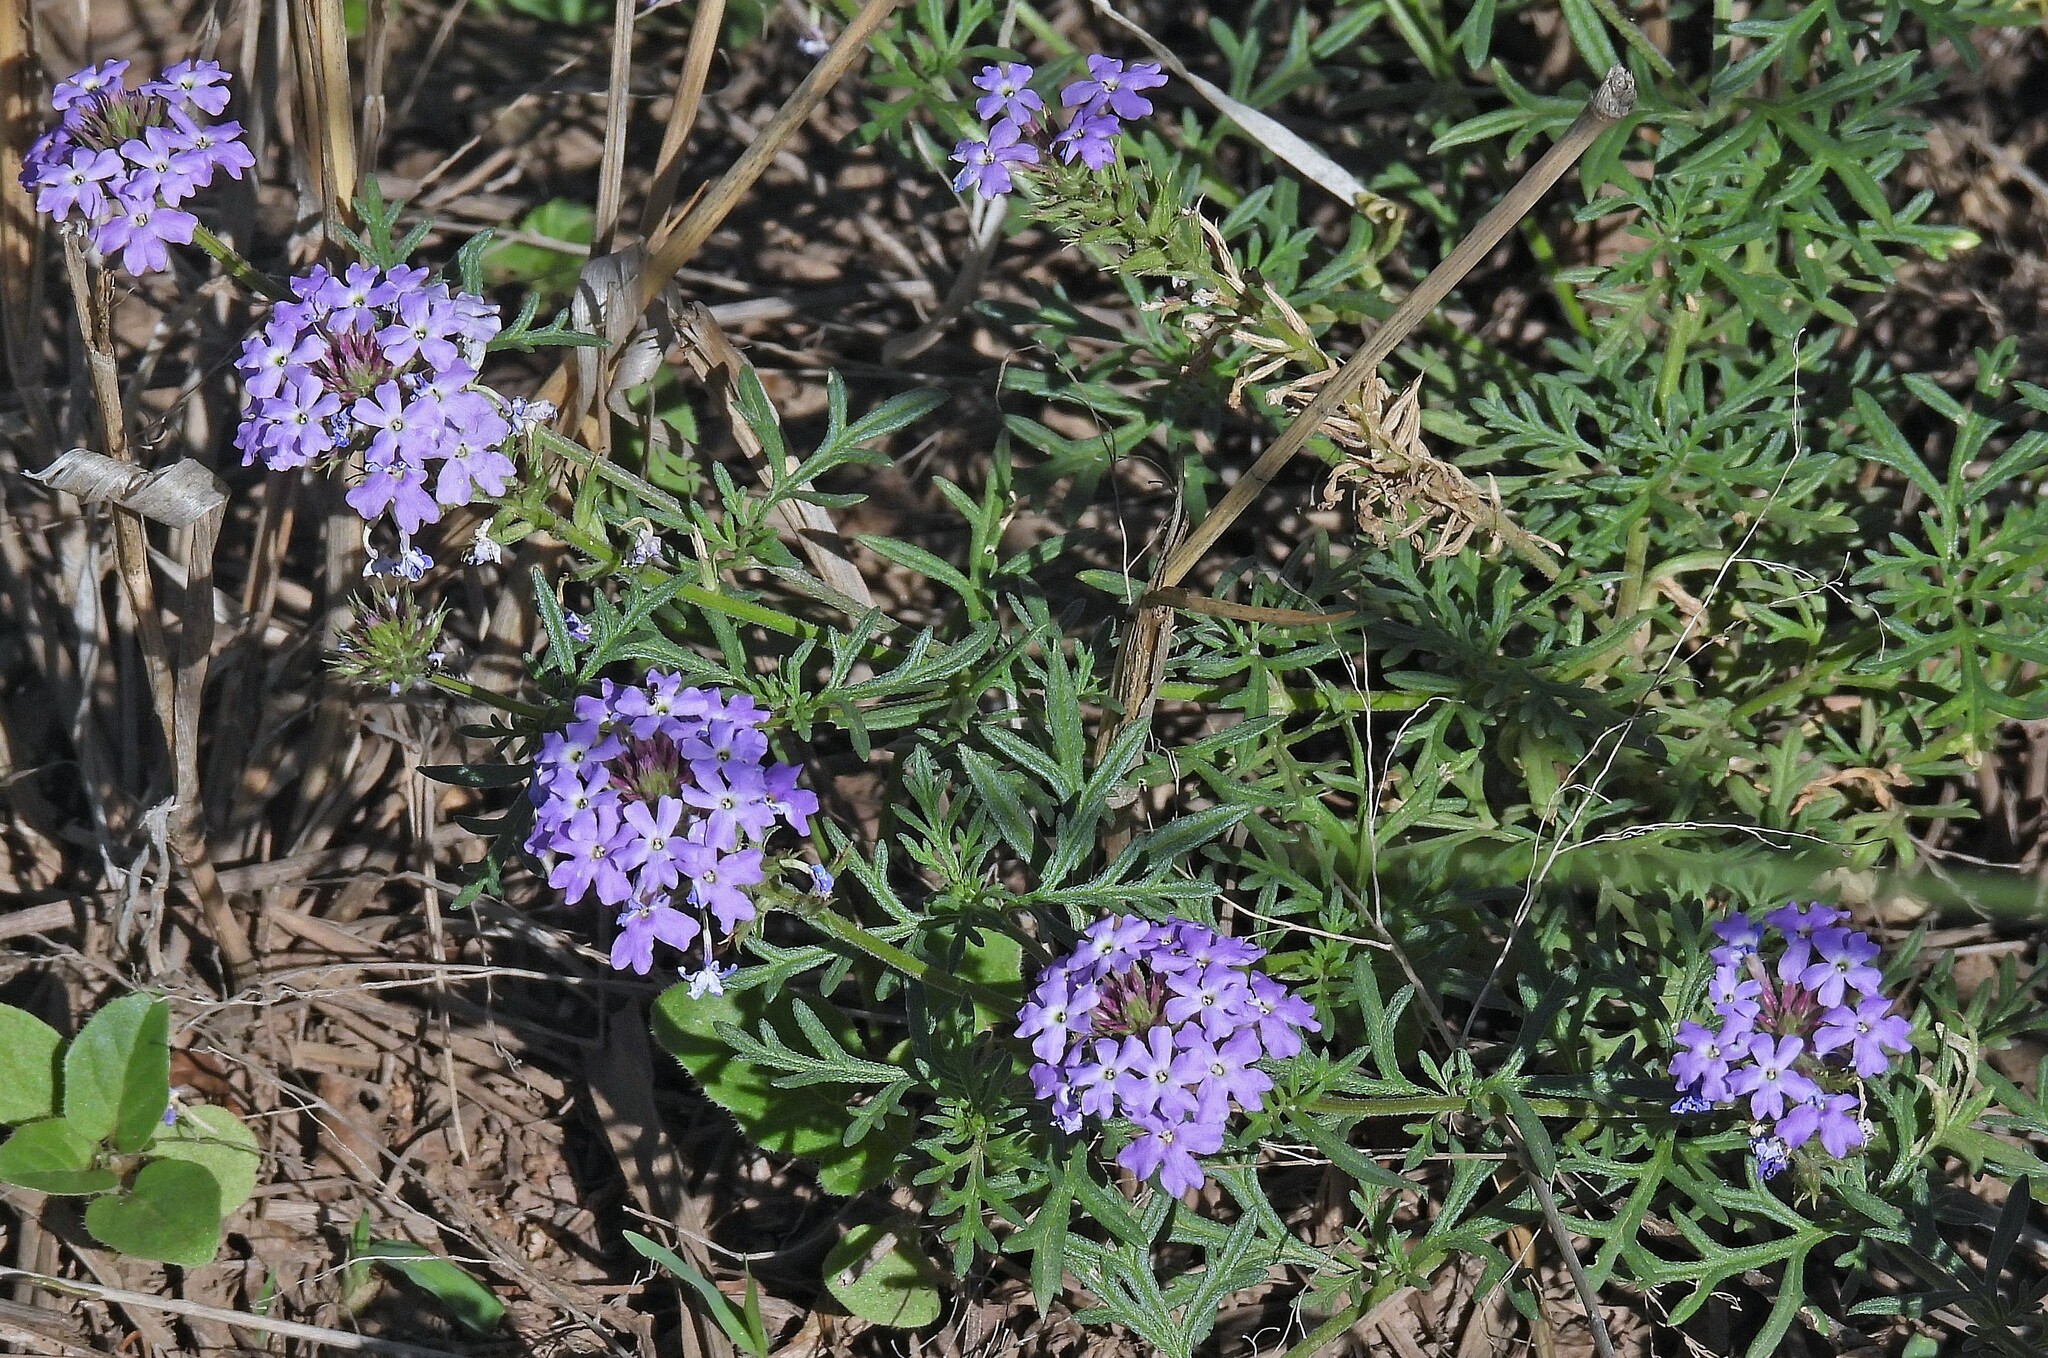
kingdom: Plantae
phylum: Tracheophyta
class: Magnoliopsida
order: Lamiales
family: Verbenaceae
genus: Junellia
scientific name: Junellia hookeriana
